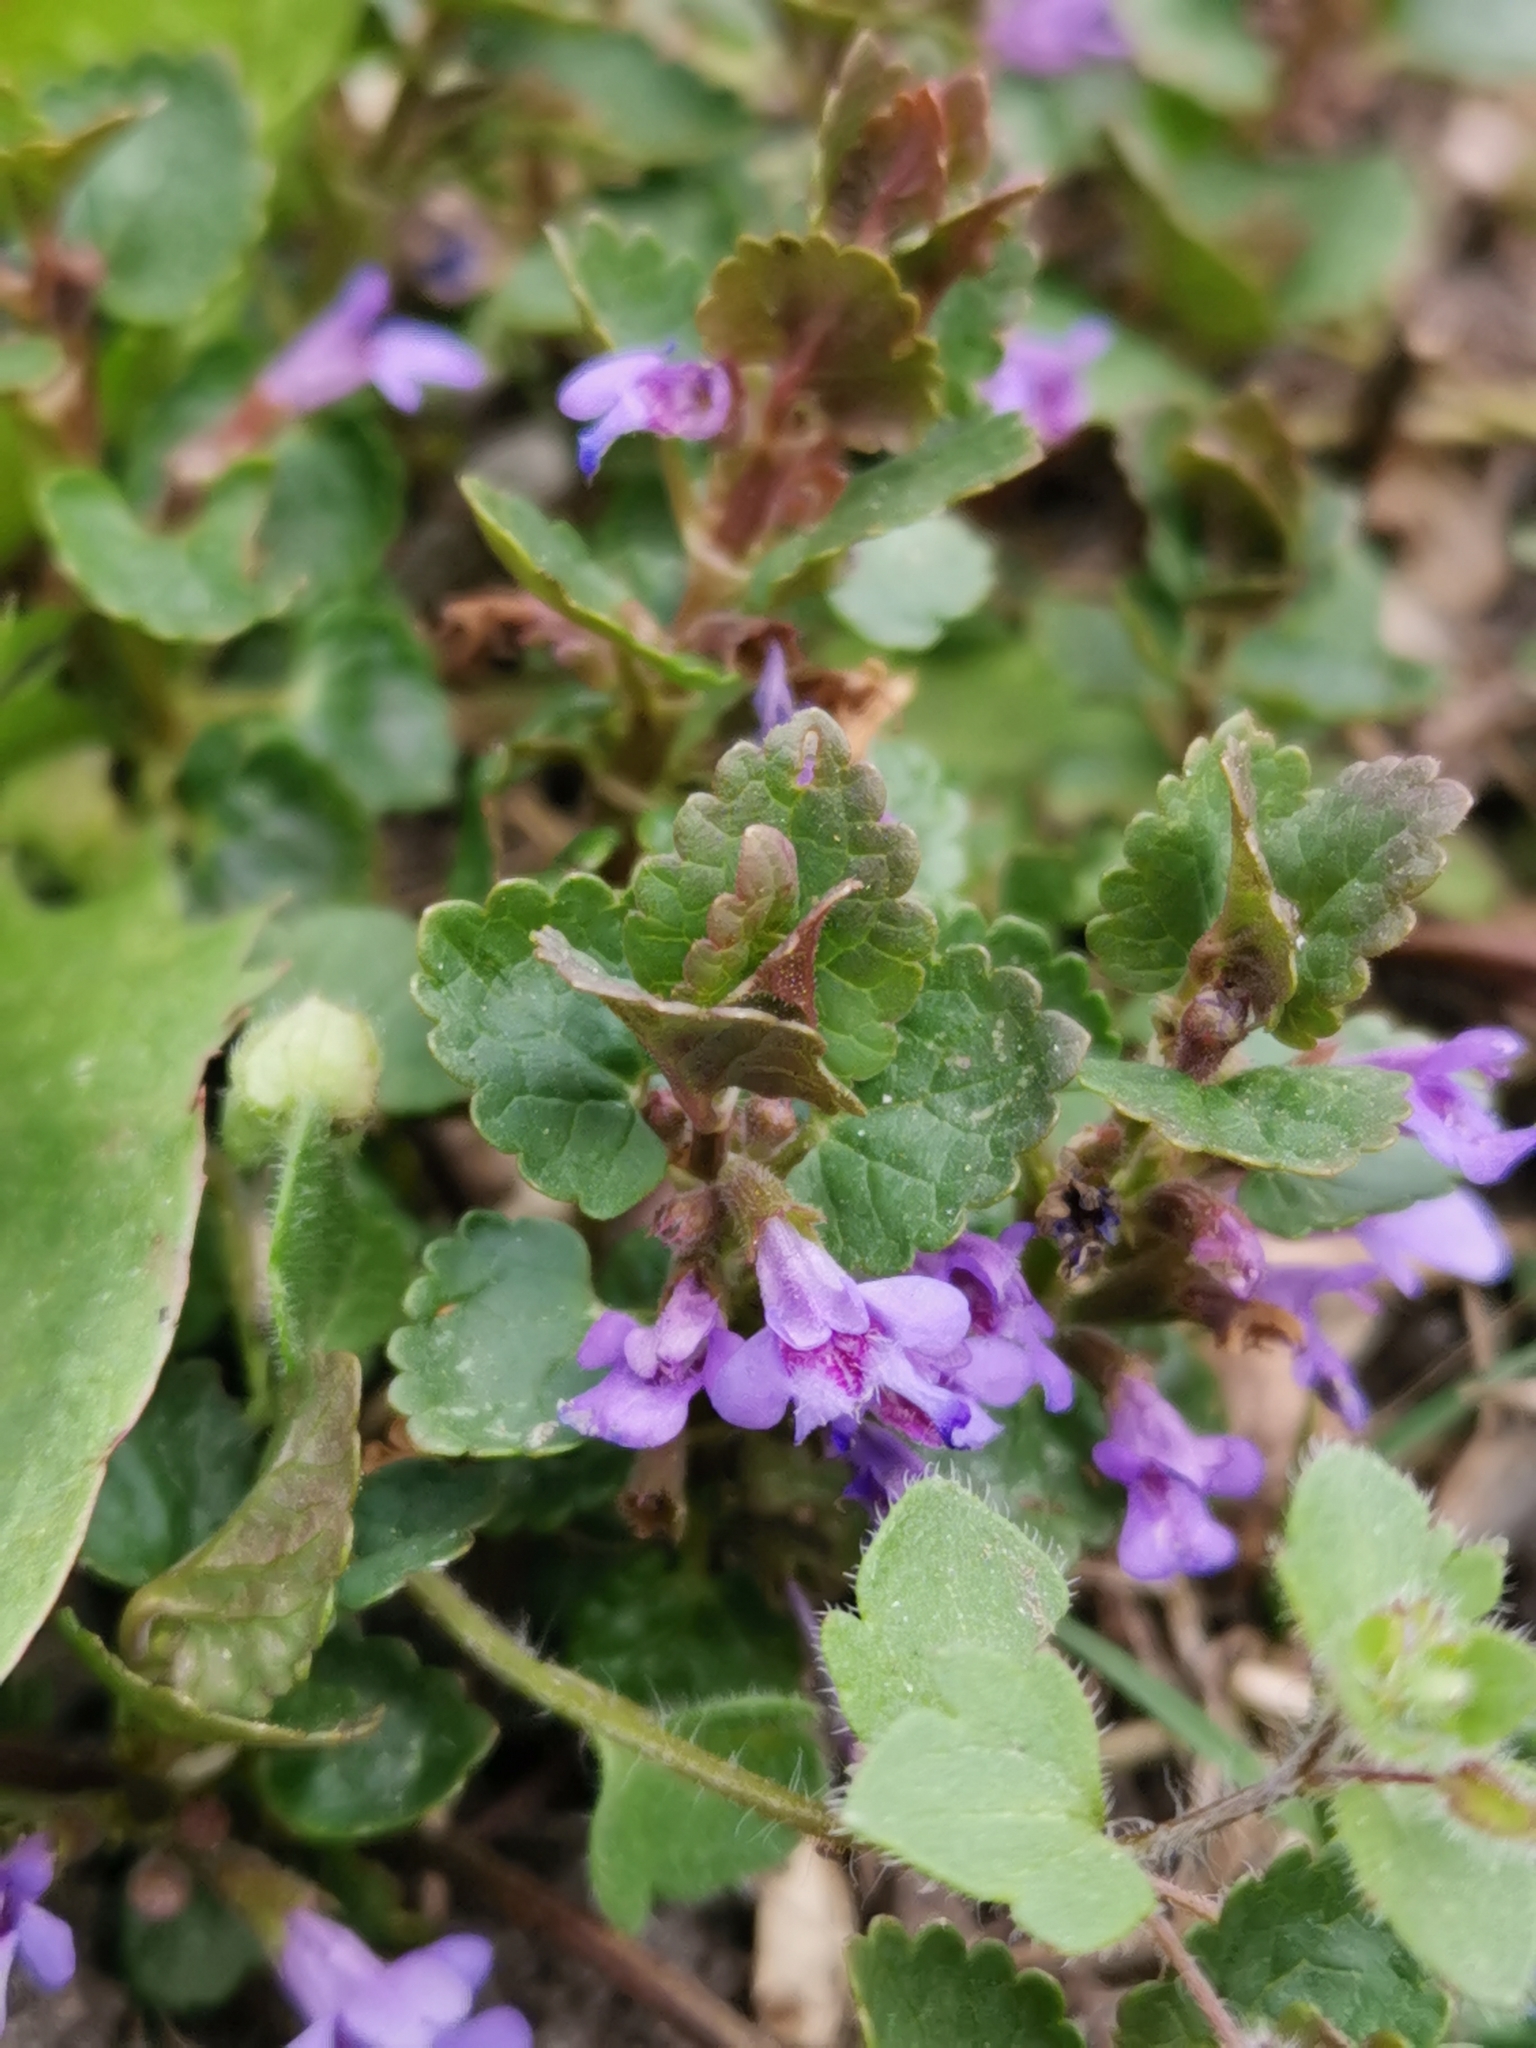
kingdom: Plantae
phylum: Tracheophyta
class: Magnoliopsida
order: Lamiales
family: Lamiaceae
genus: Glechoma
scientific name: Glechoma hederacea
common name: Ground ivy
